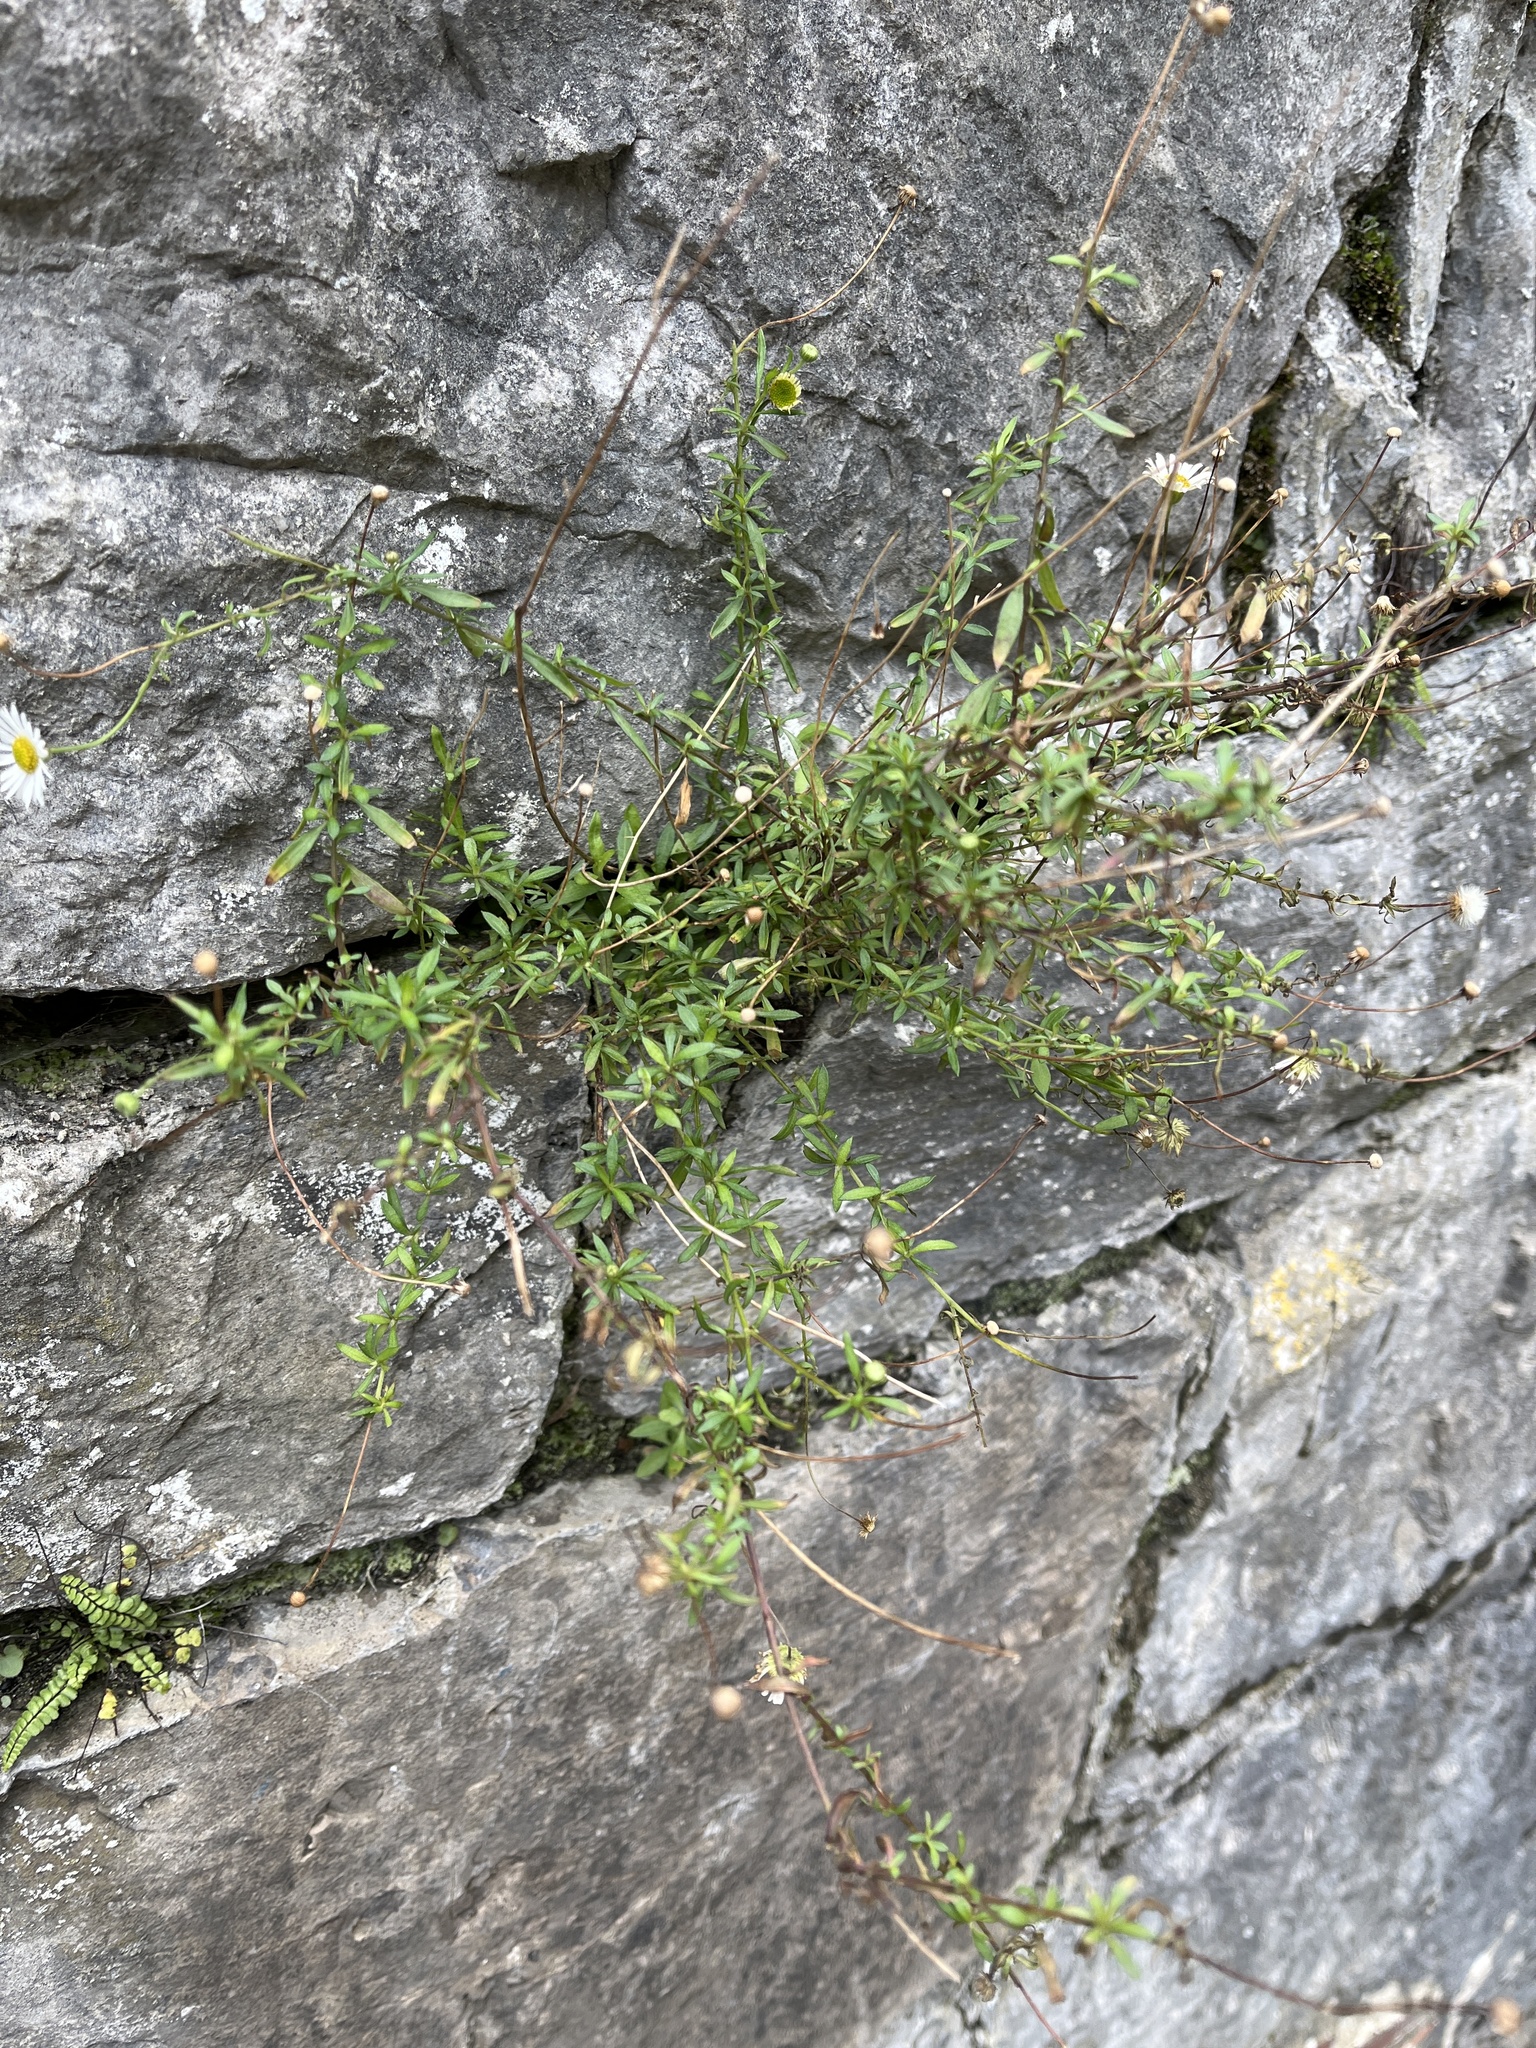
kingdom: Plantae
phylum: Tracheophyta
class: Magnoliopsida
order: Asterales
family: Asteraceae
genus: Erigeron
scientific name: Erigeron karvinskianus
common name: Mexican fleabane
